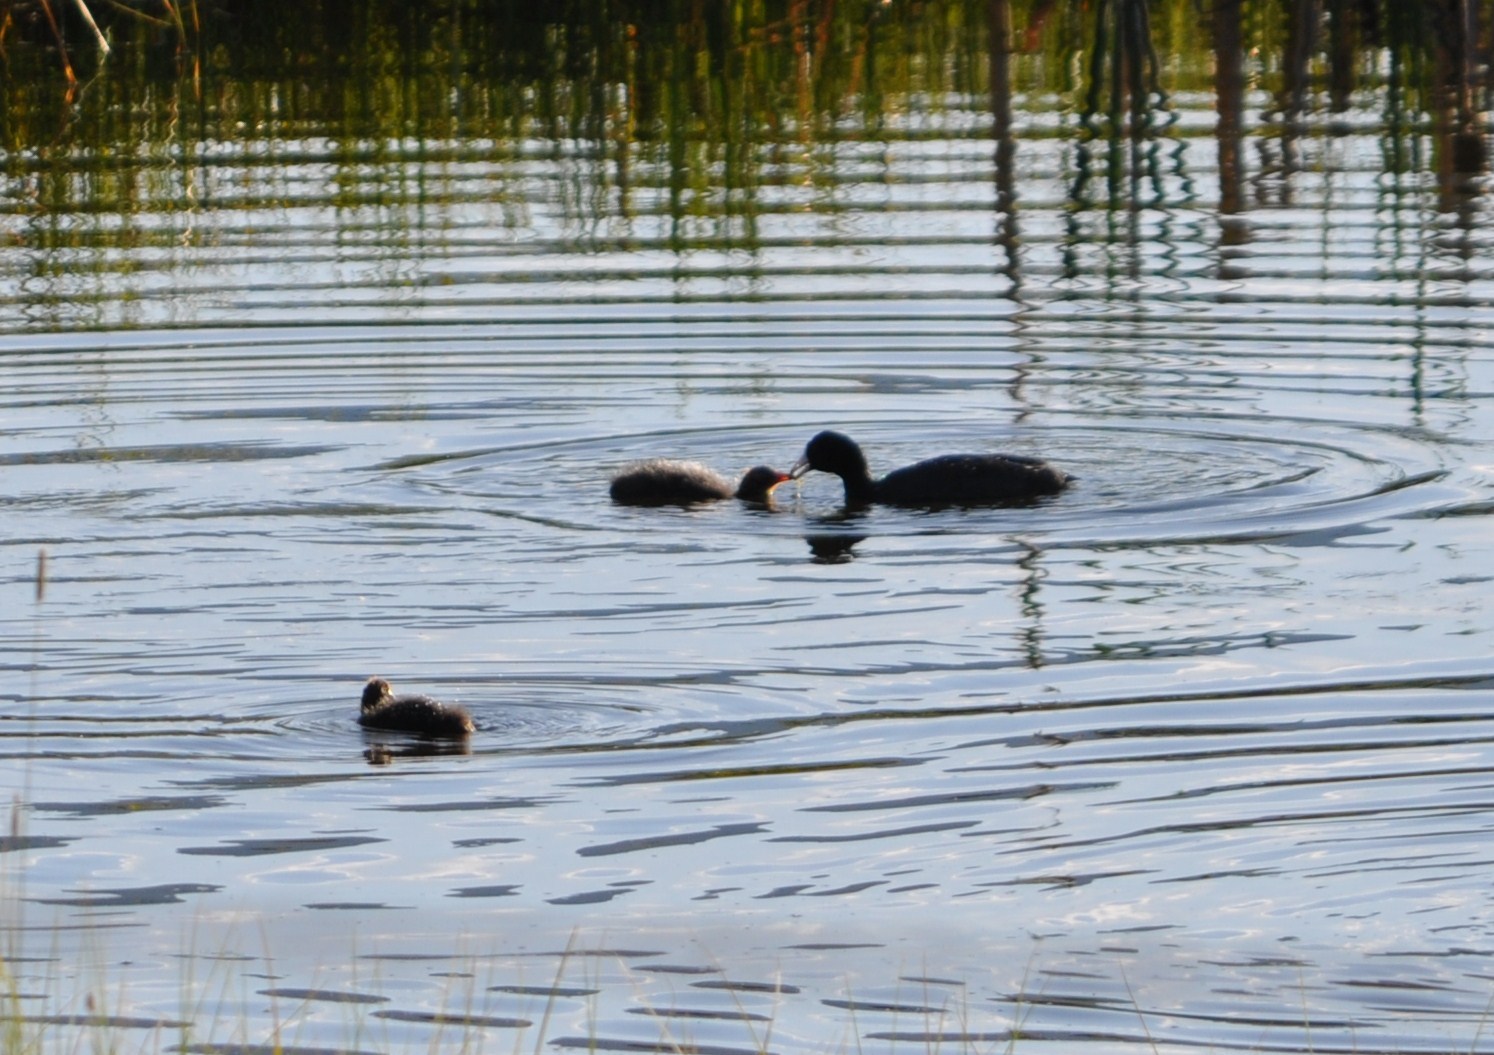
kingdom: Animalia
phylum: Chordata
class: Aves
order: Gruiformes
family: Rallidae
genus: Fulica
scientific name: Fulica americana
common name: American coot
